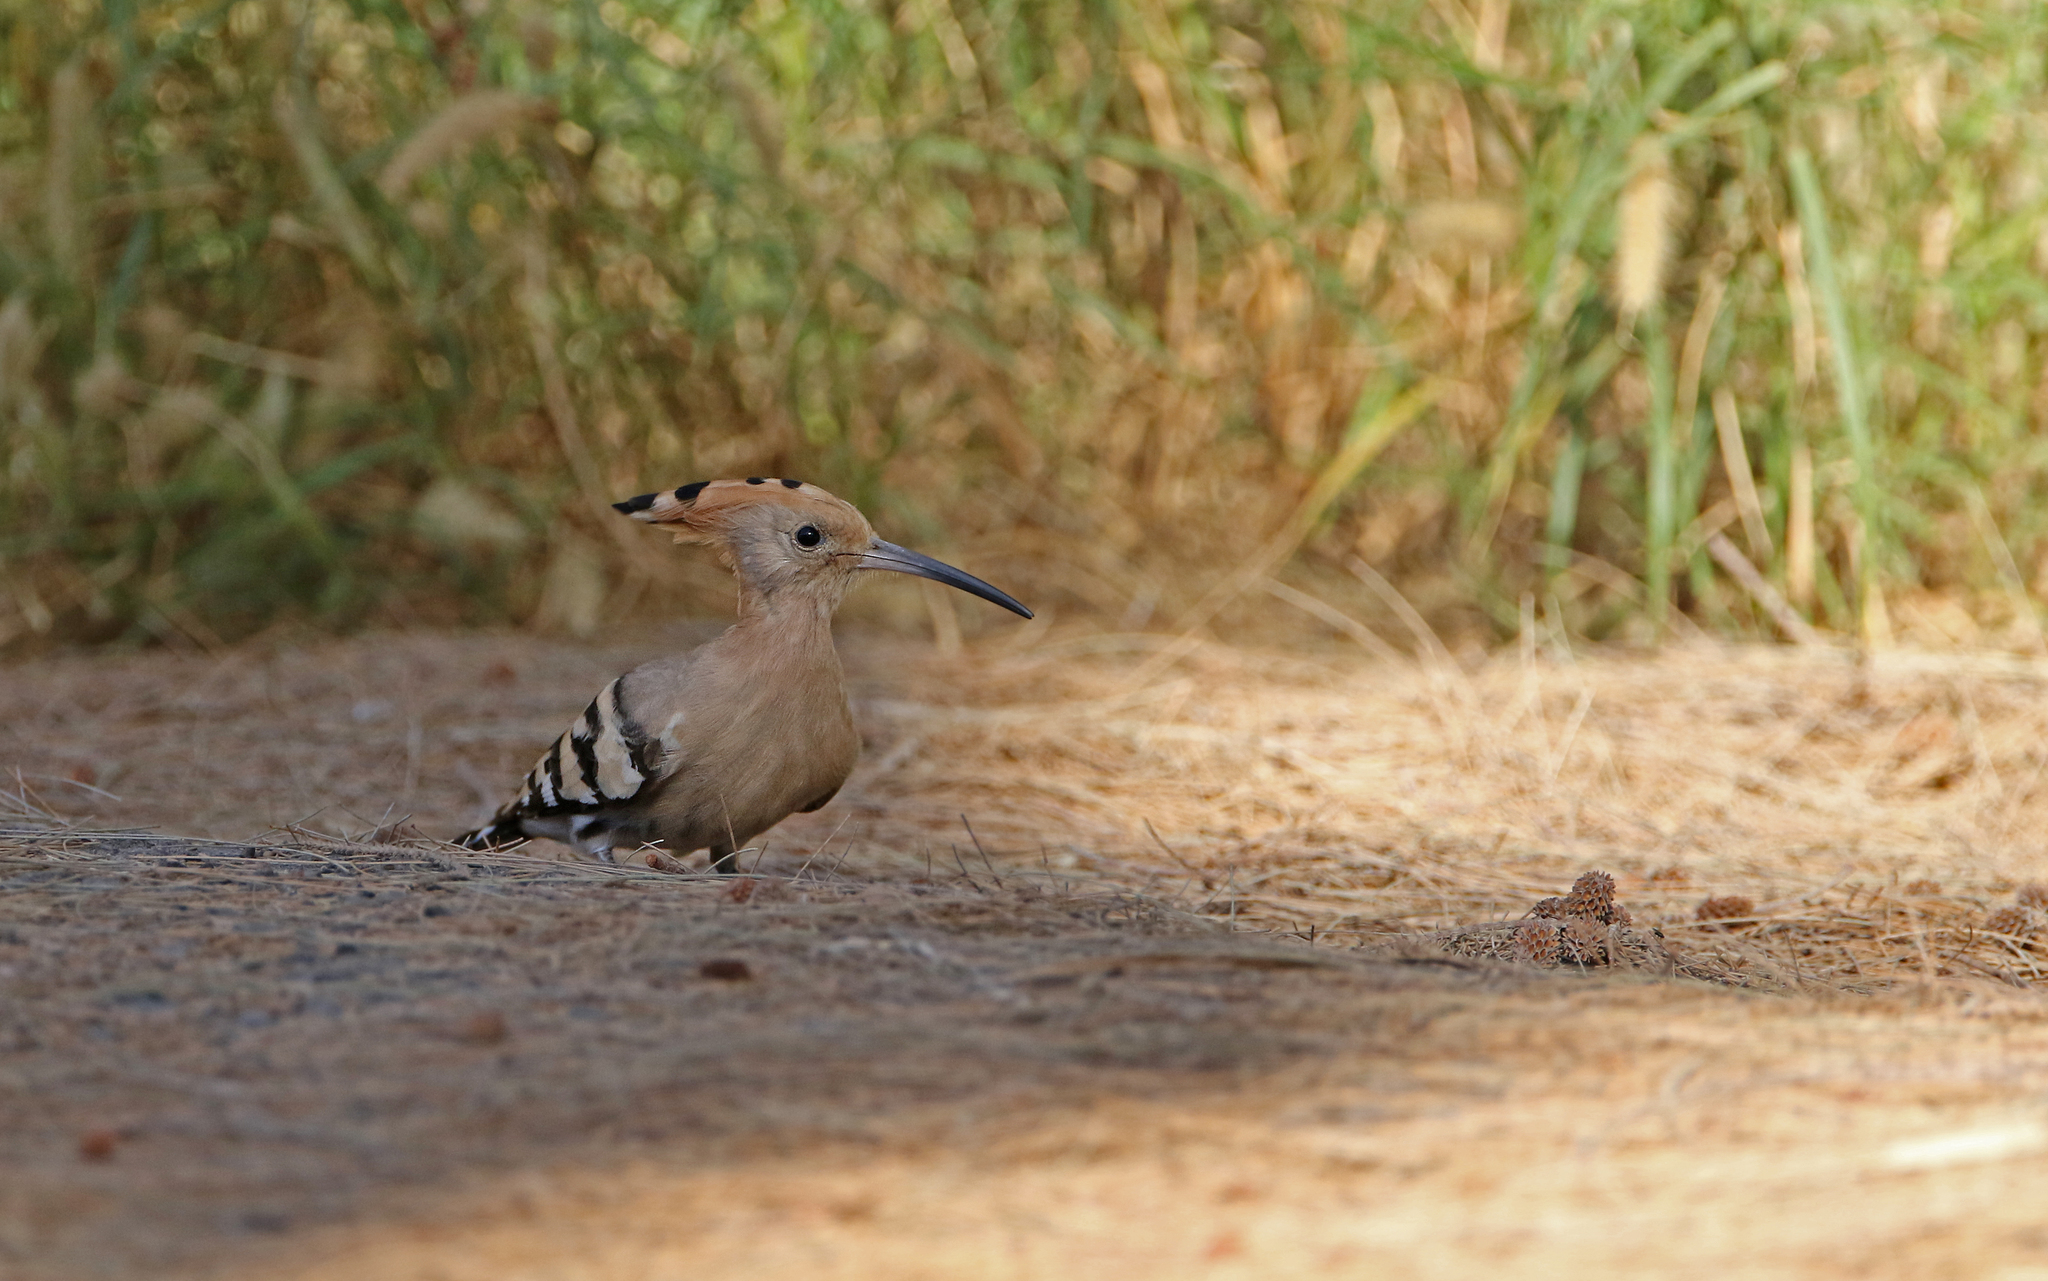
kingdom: Animalia
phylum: Chordata
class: Aves
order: Bucerotiformes
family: Upupidae
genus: Upupa
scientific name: Upupa epops
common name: Eurasian hoopoe
